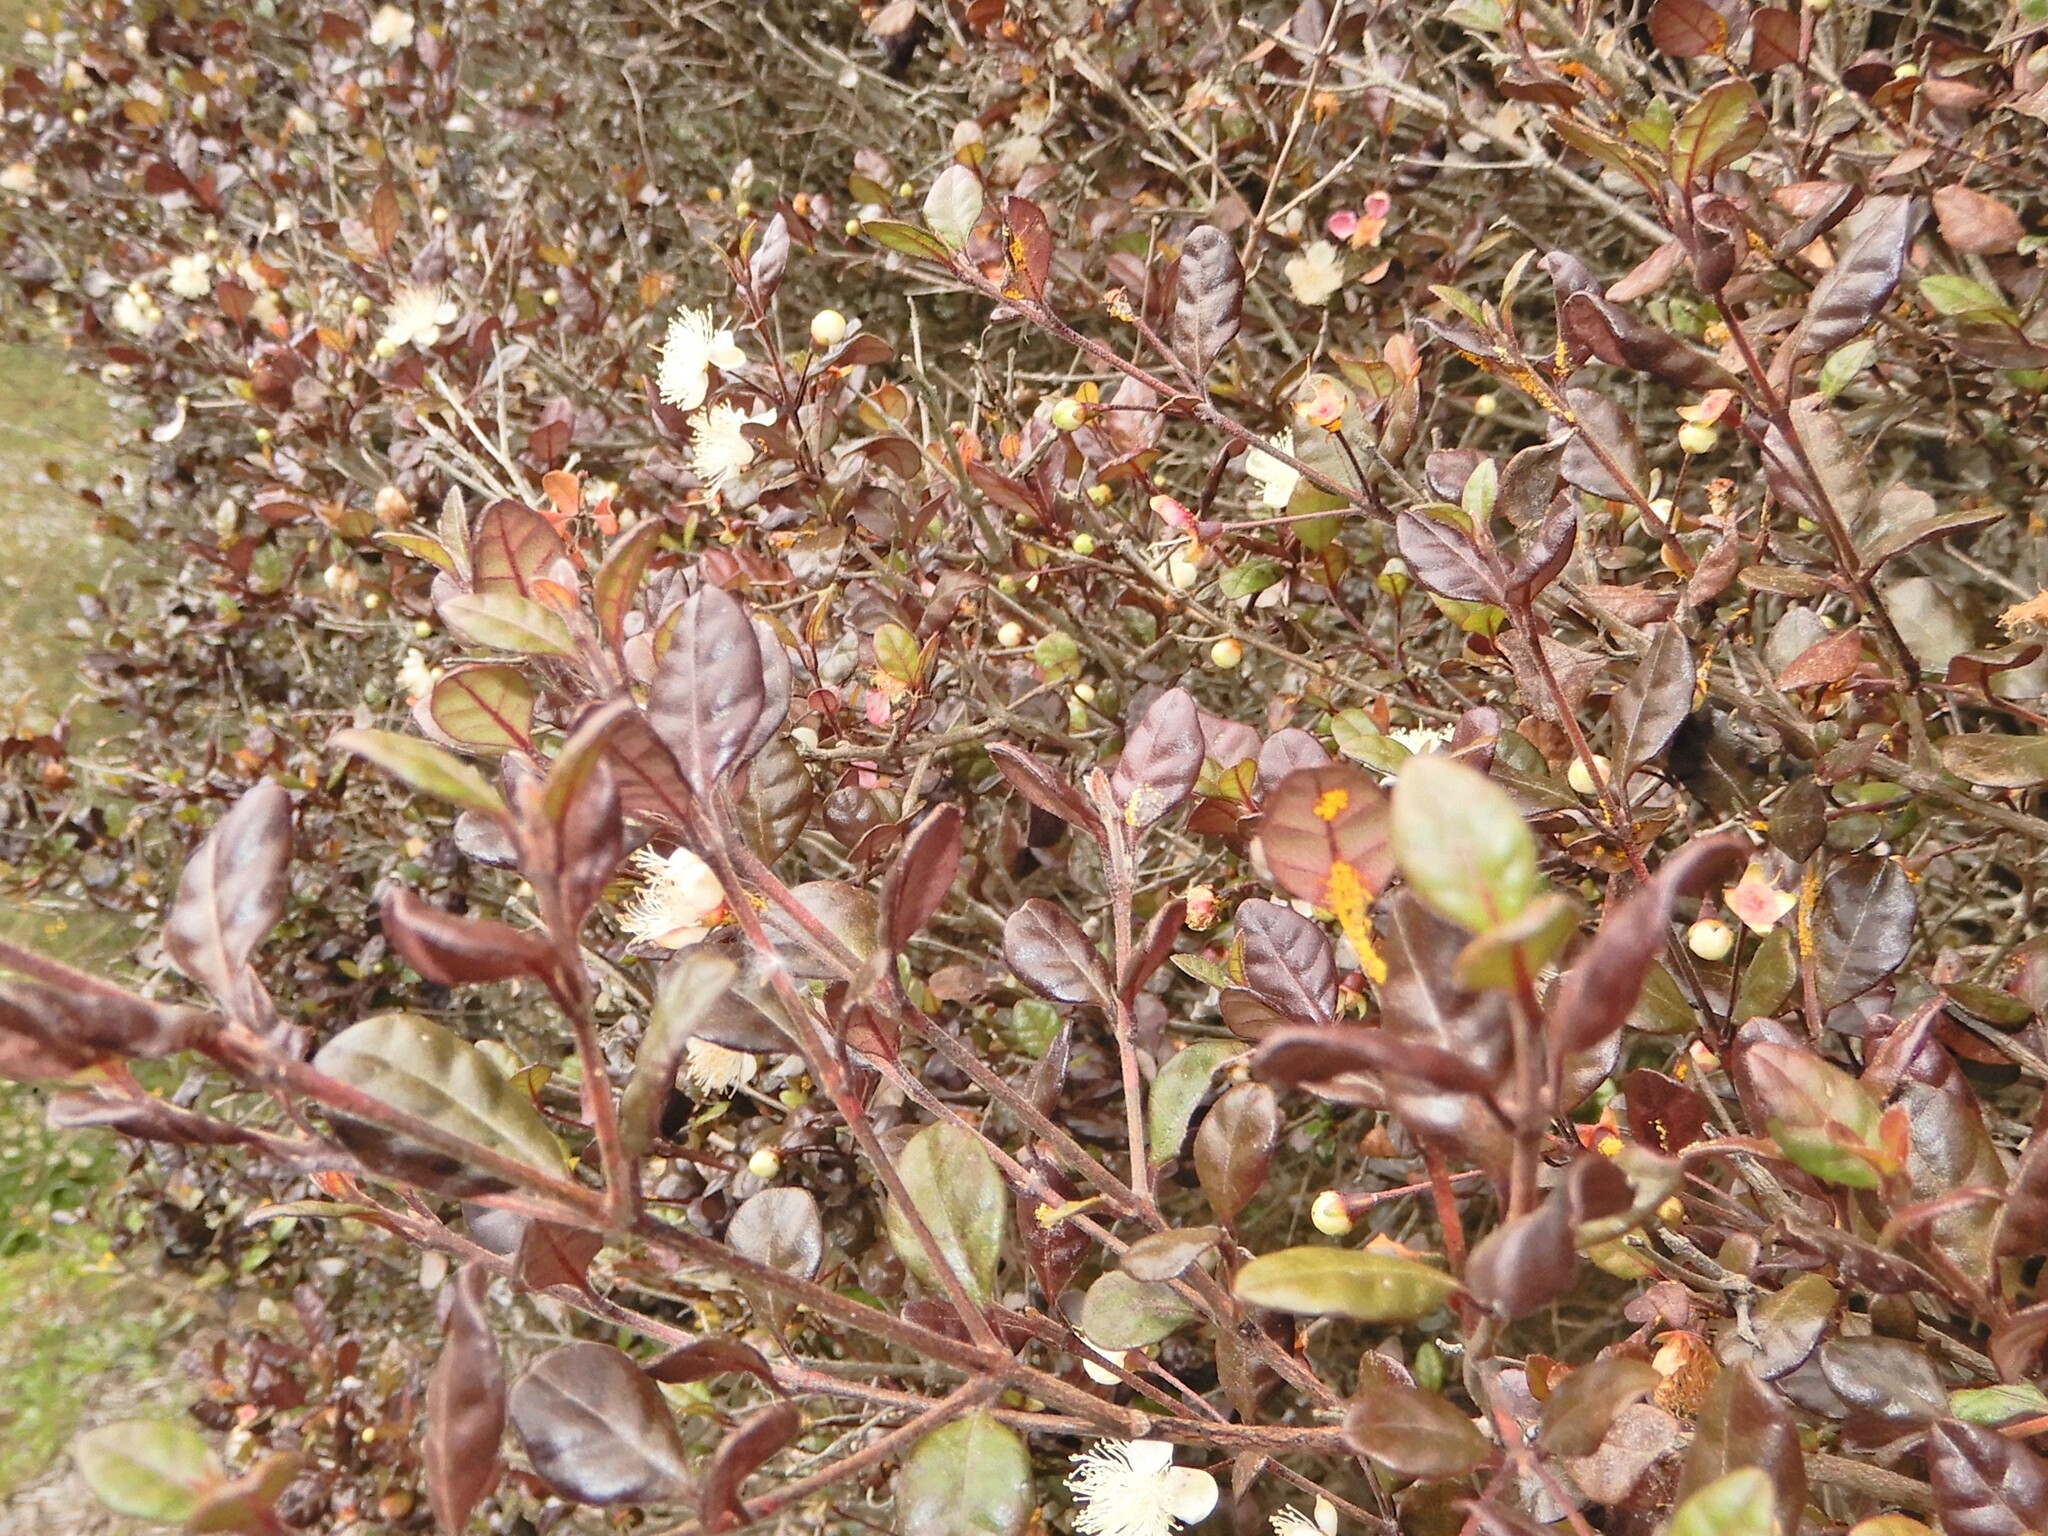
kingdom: Plantae
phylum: Tracheophyta
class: Magnoliopsida
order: Myrtales
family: Myrtaceae
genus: Lophomyrtus
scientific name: Lophomyrtus bullata
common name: Rama rama
